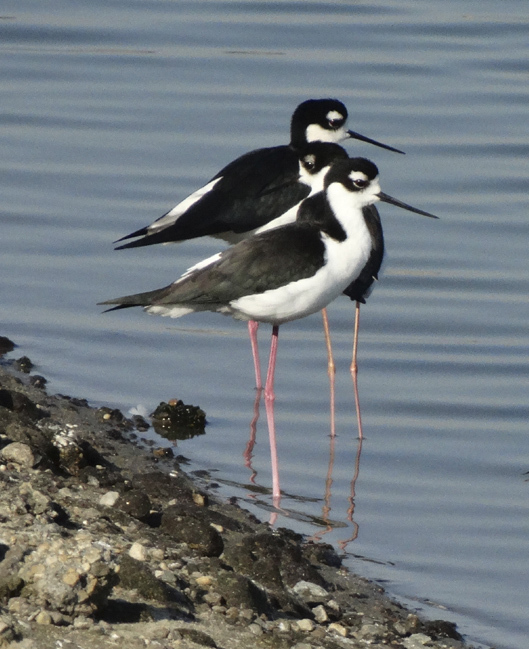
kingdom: Animalia
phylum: Chordata
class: Aves
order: Charadriiformes
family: Recurvirostridae
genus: Himantopus
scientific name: Himantopus mexicanus
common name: Black-necked stilt
